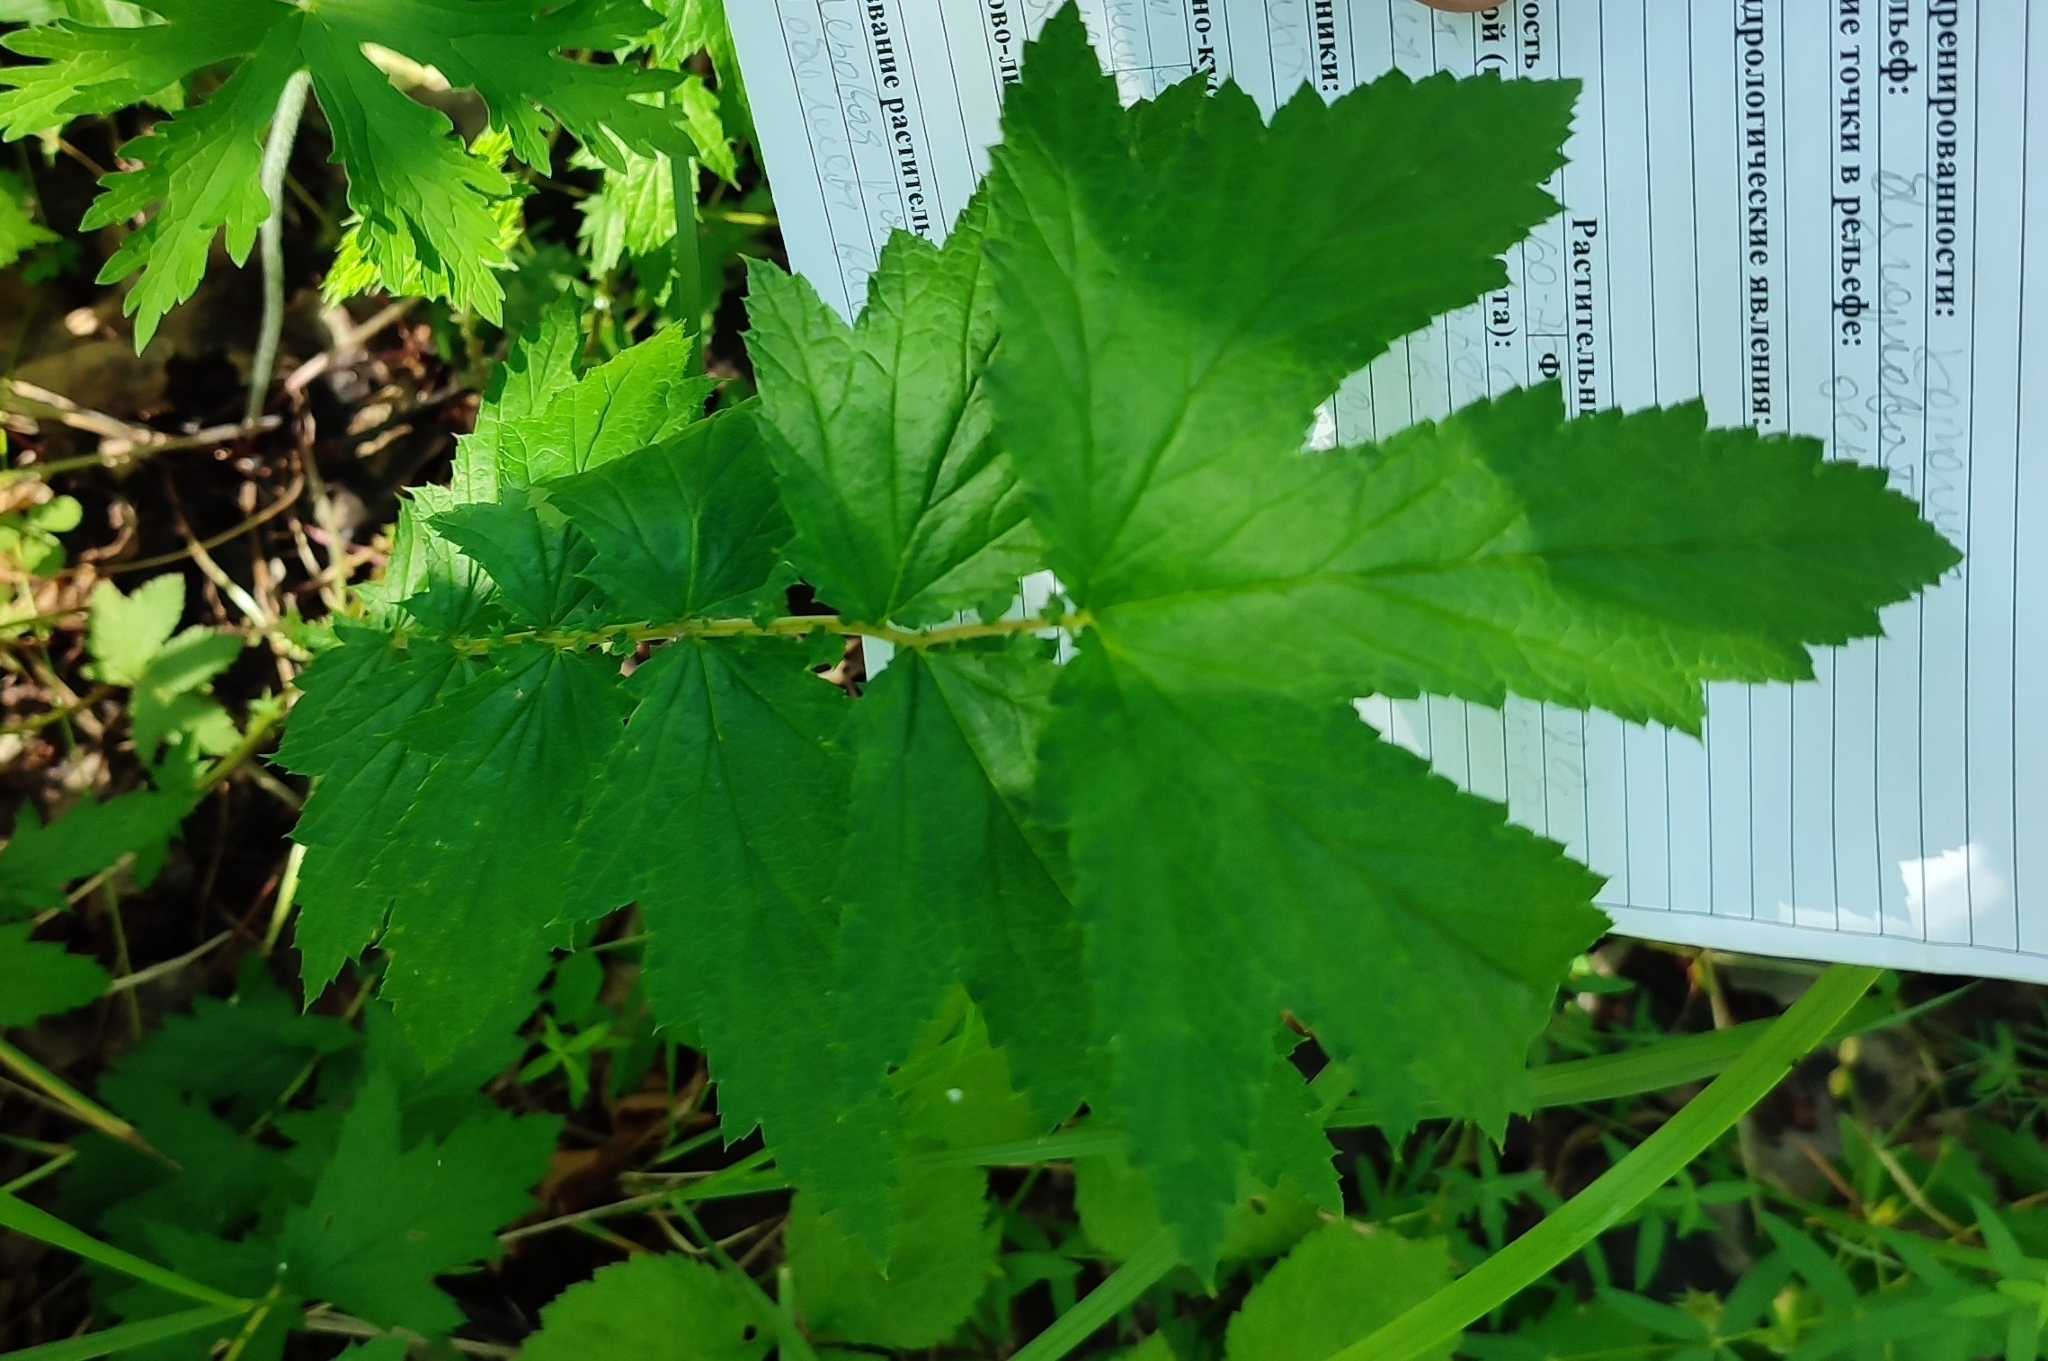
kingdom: Plantae
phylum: Tracheophyta
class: Magnoliopsida
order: Rosales
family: Rosaceae
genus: Filipendula
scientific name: Filipendula ulmaria
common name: Meadowsweet
